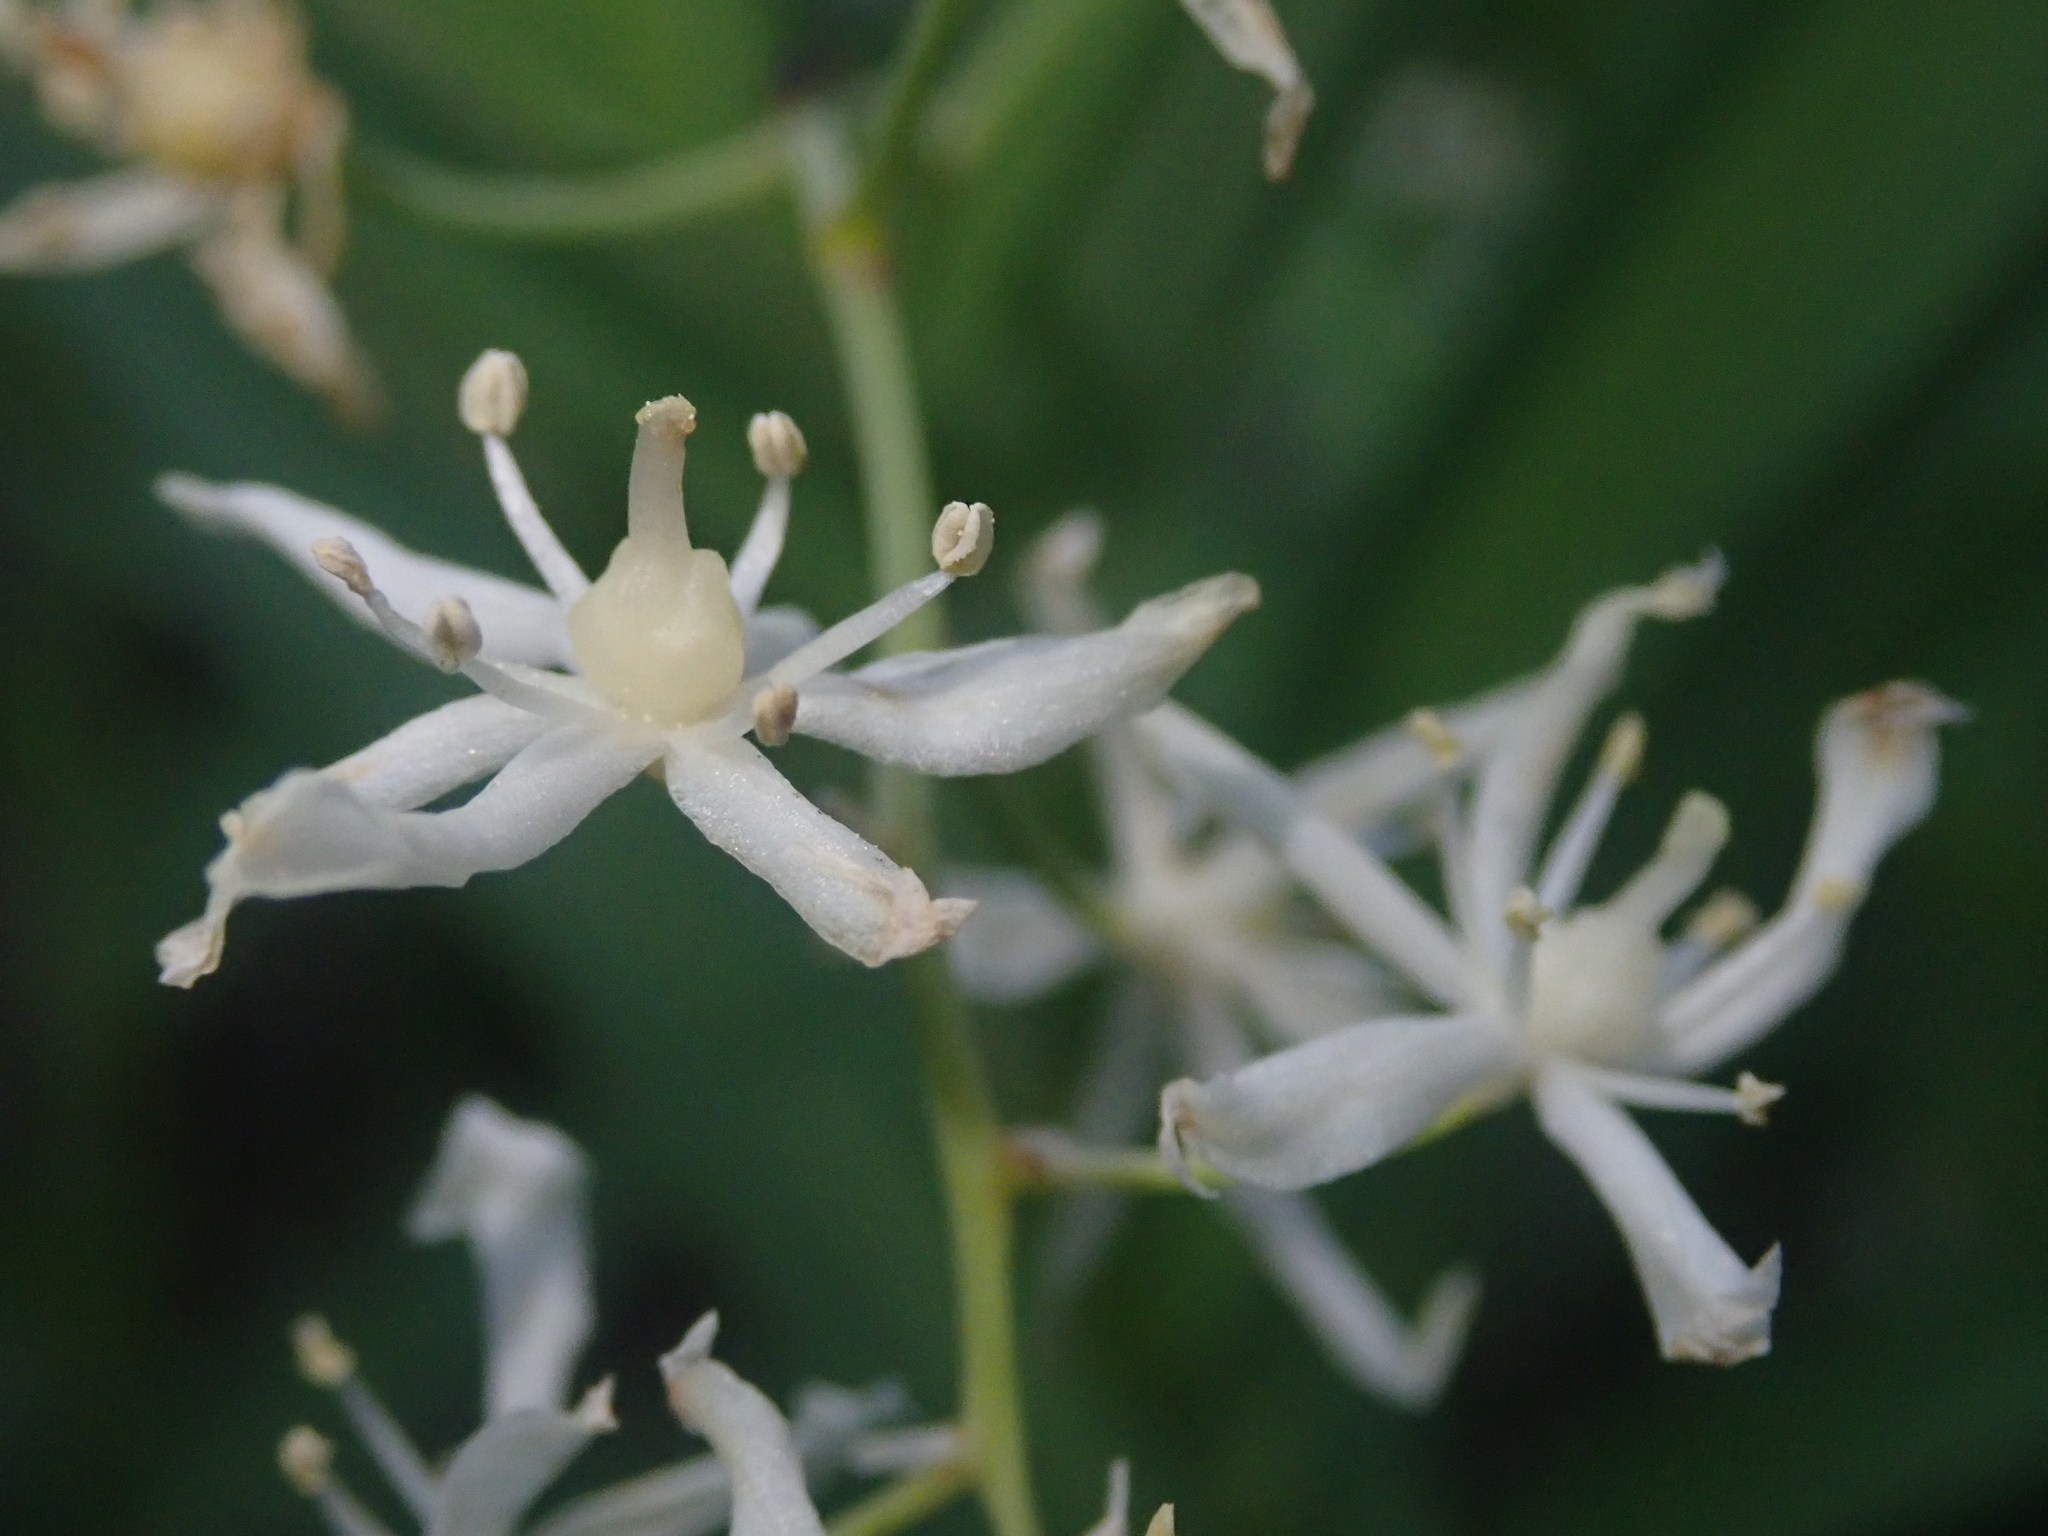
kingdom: Plantae
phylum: Tracheophyta
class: Liliopsida
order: Asparagales
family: Asparagaceae
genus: Maianthemum
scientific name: Maianthemum stellatum
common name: Little false solomon's seal
